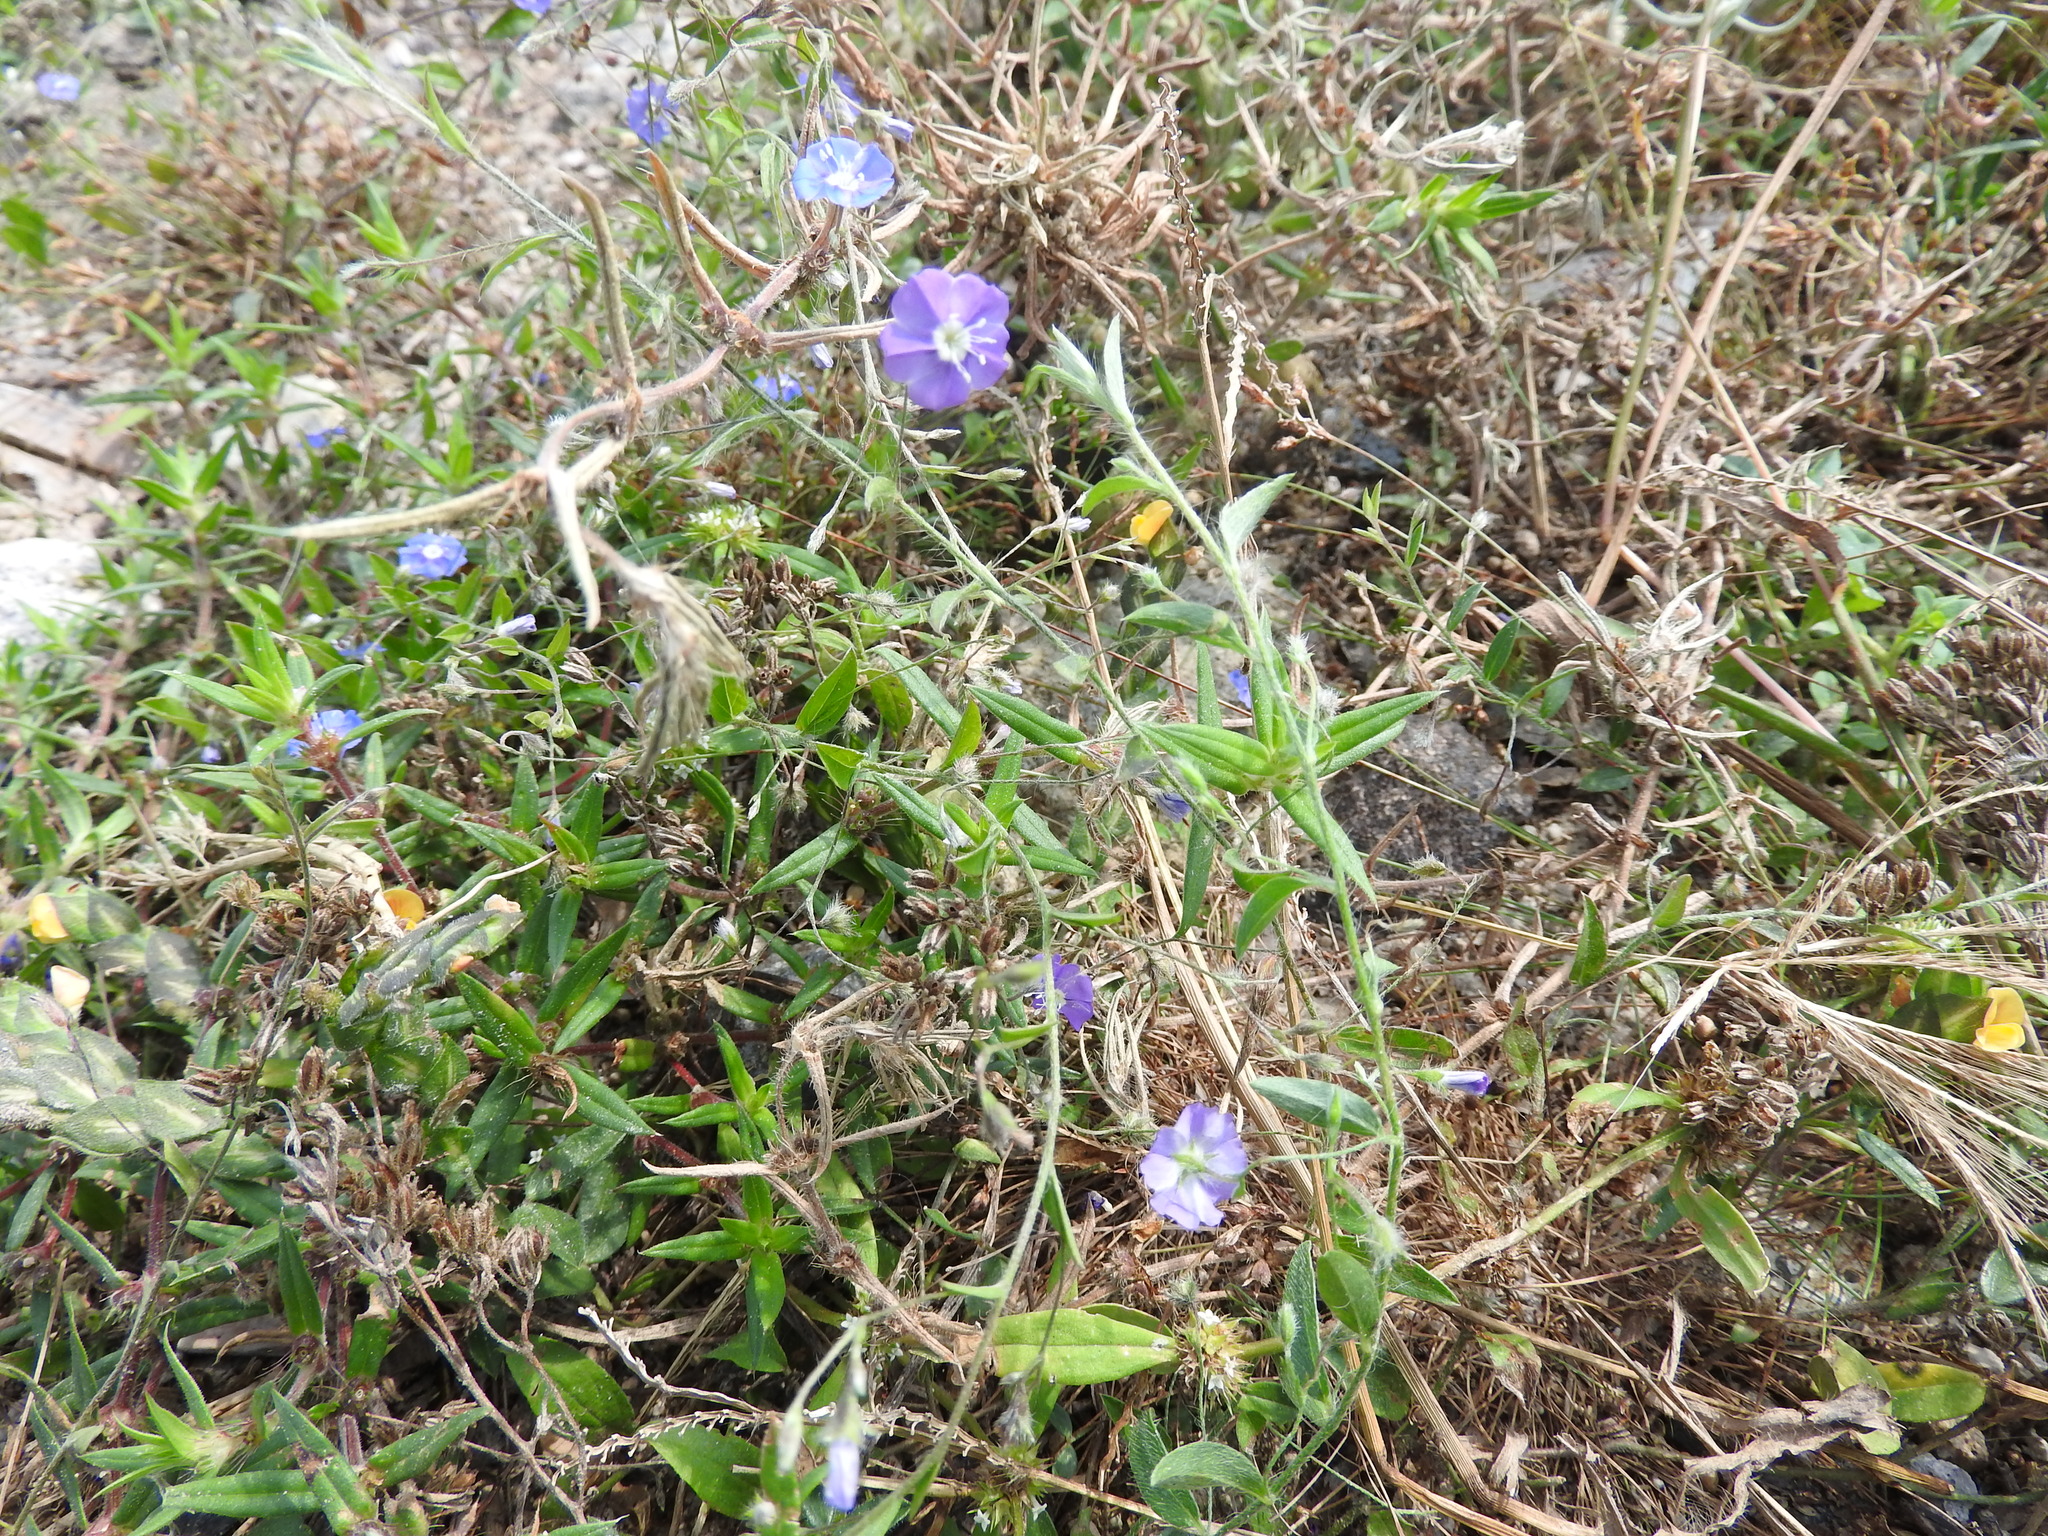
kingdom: Plantae
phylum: Tracheophyta
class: Magnoliopsida
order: Solanales
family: Convolvulaceae
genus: Evolvulus
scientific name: Evolvulus alsinoides
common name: Slender dwarf morning-glory
